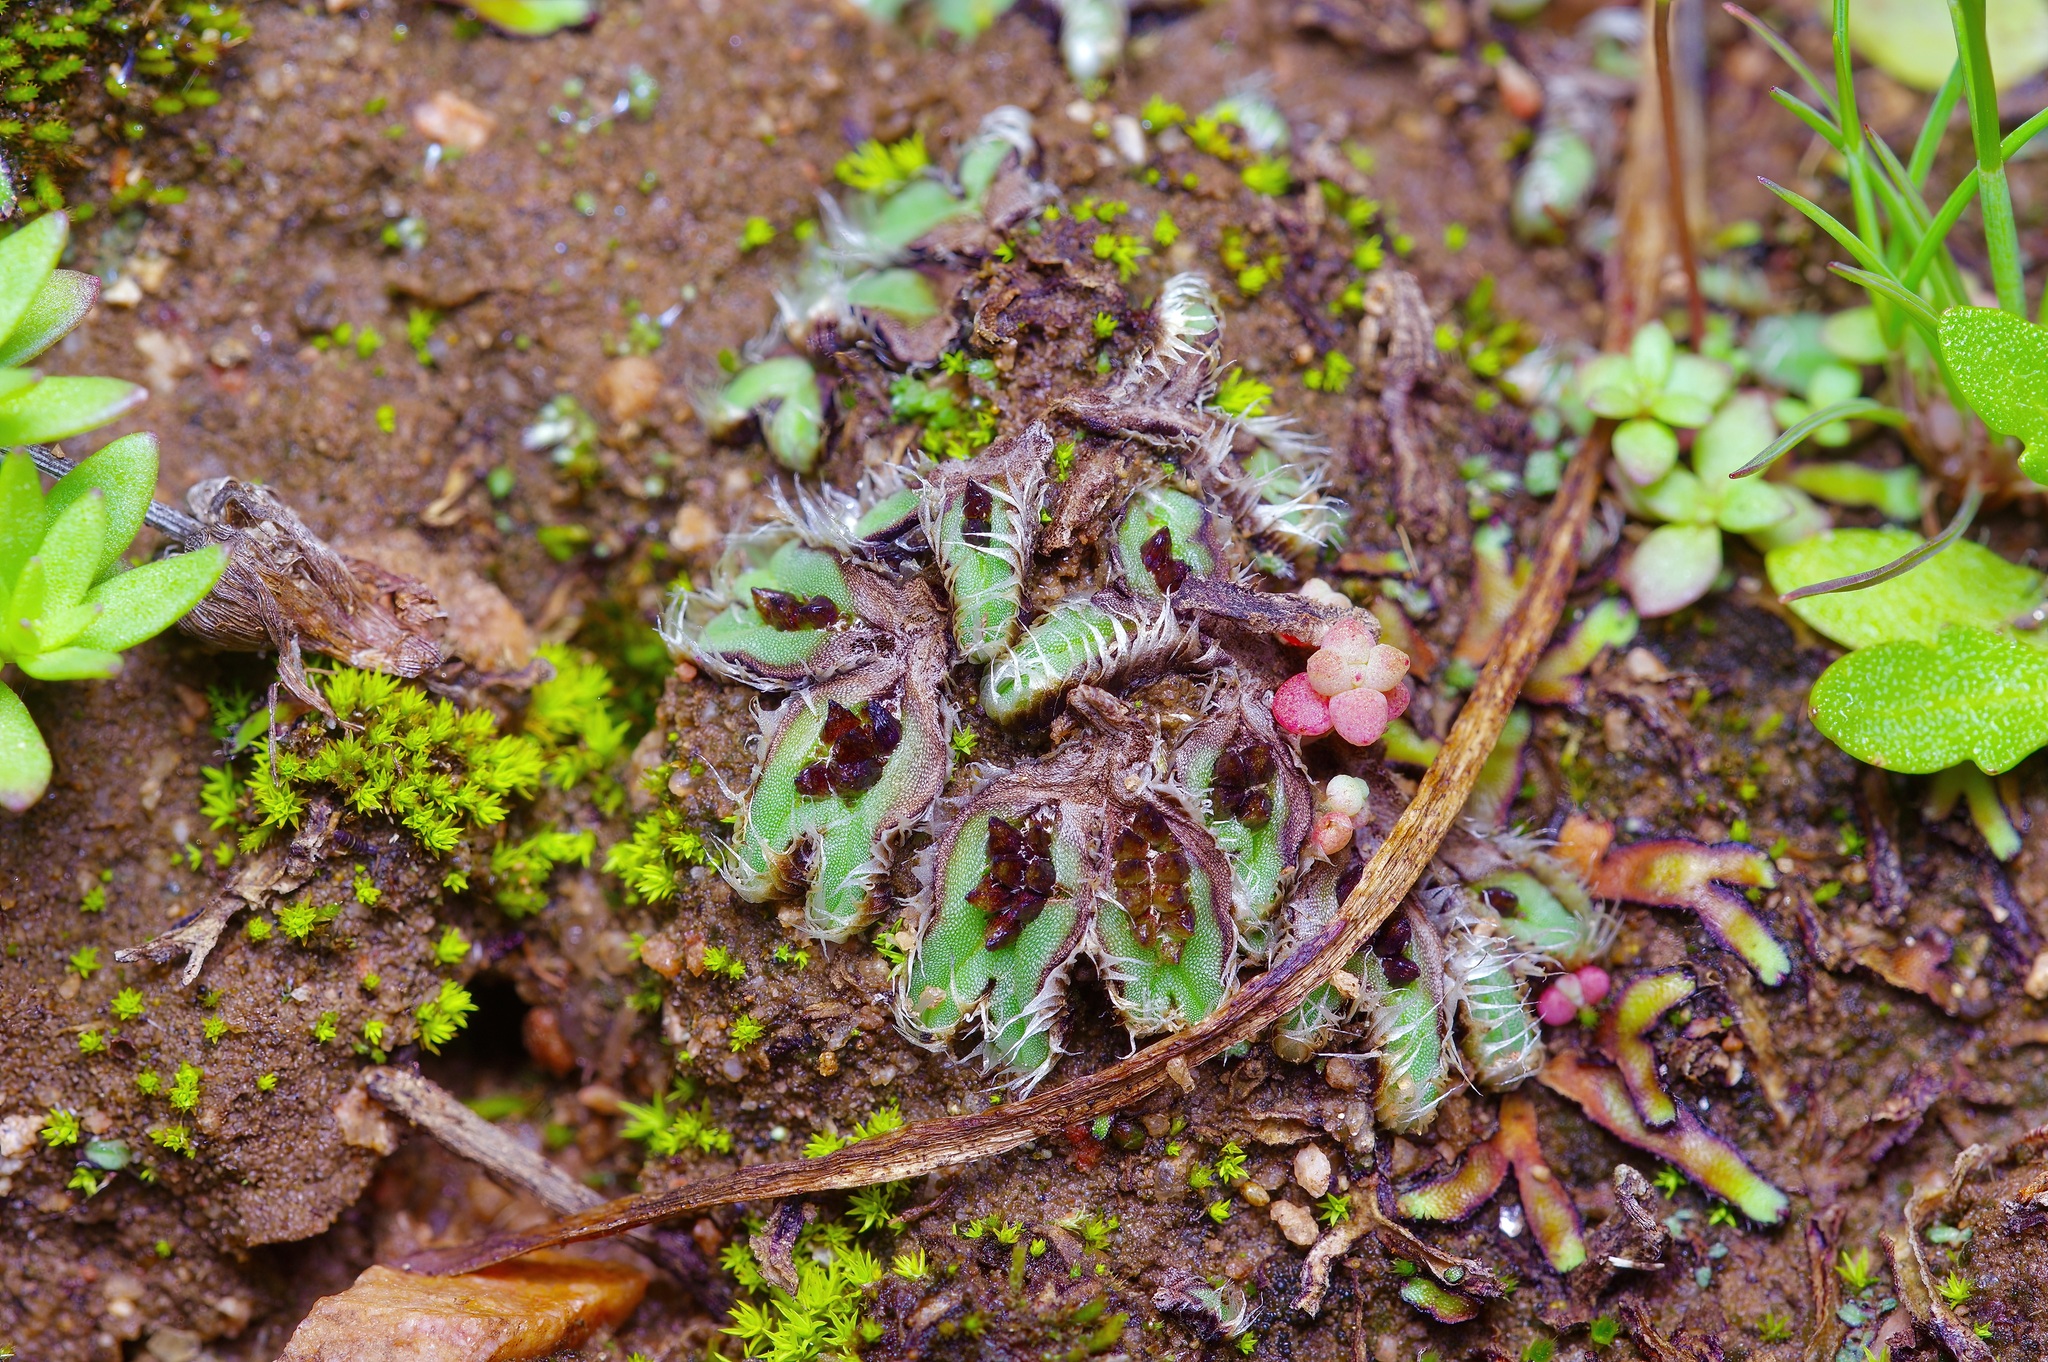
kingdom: Plantae
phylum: Marchantiophyta
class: Marchantiopsida
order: Marchantiales
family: Ricciaceae
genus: Oxymitra
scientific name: Oxymitra incrassata
